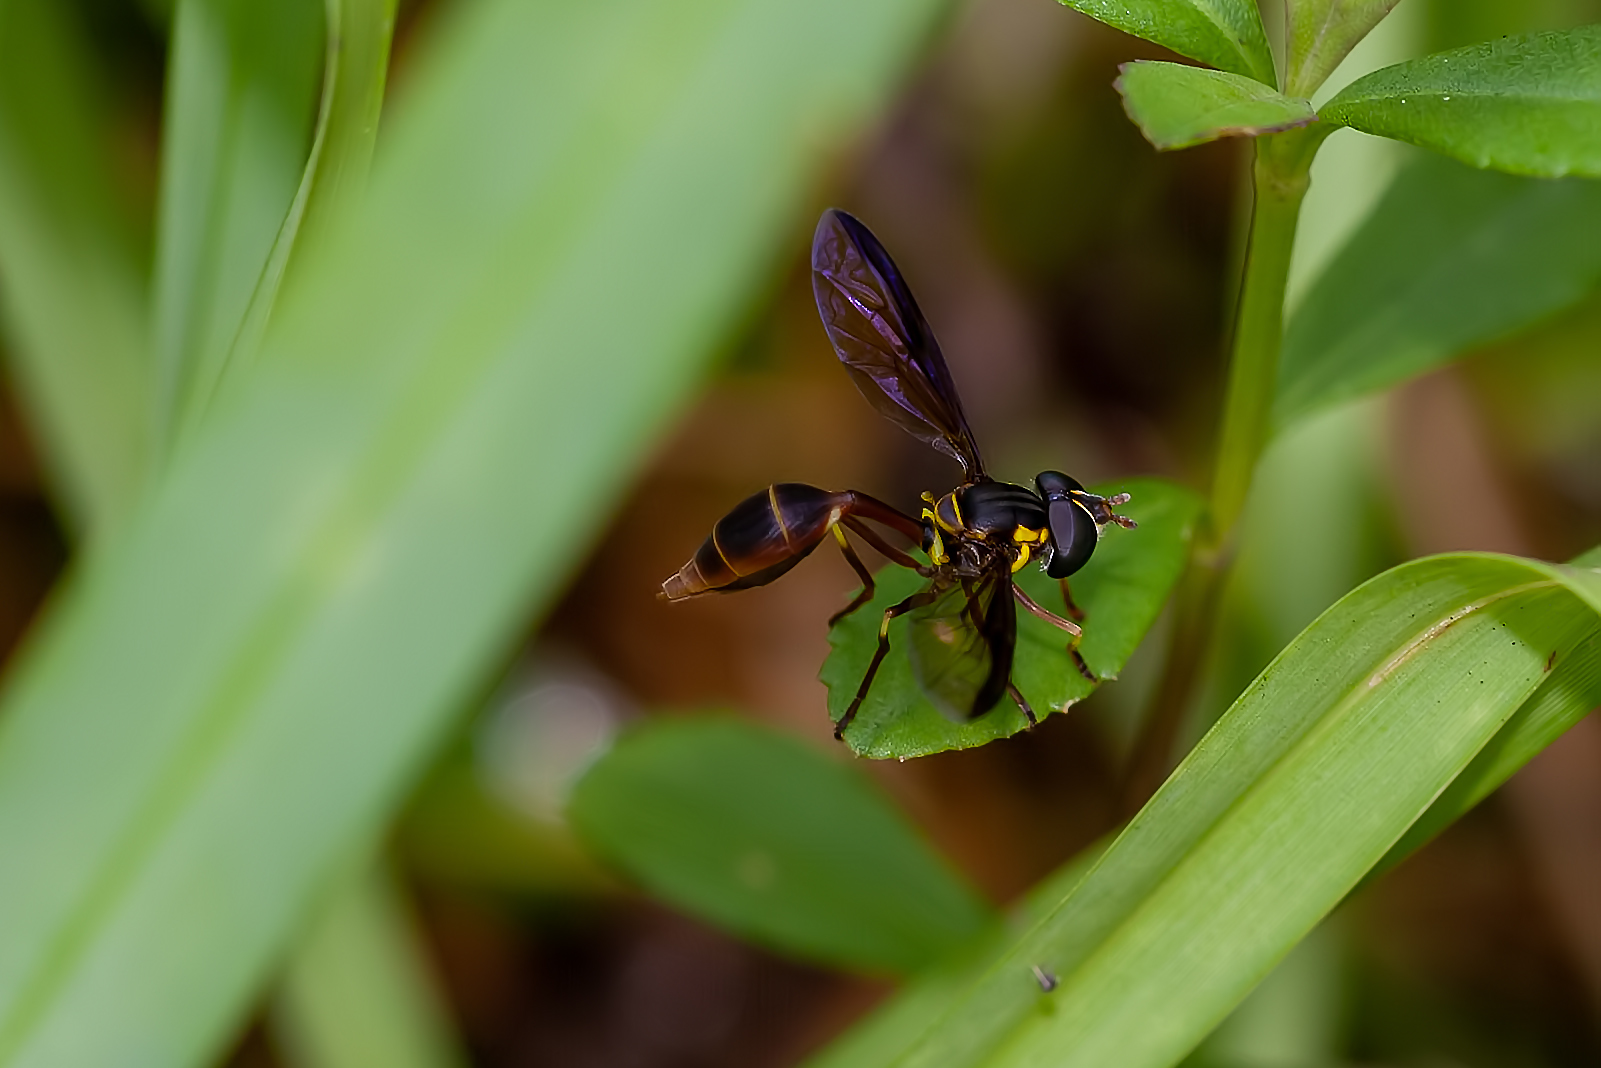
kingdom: Animalia
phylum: Arthropoda
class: Insecta
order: Diptera
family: Syrphidae
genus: Salpingogaster
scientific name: Salpingogaster punctifrons
